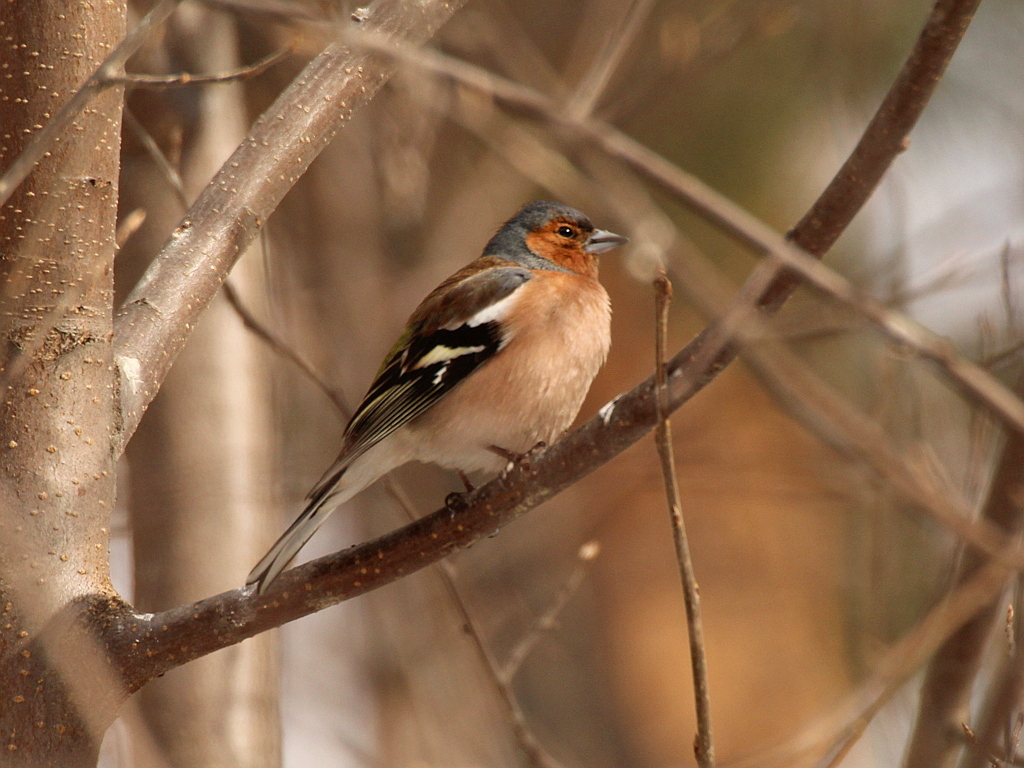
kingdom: Animalia
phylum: Chordata
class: Aves
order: Passeriformes
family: Fringillidae
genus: Fringilla
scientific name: Fringilla coelebs
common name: Common chaffinch
